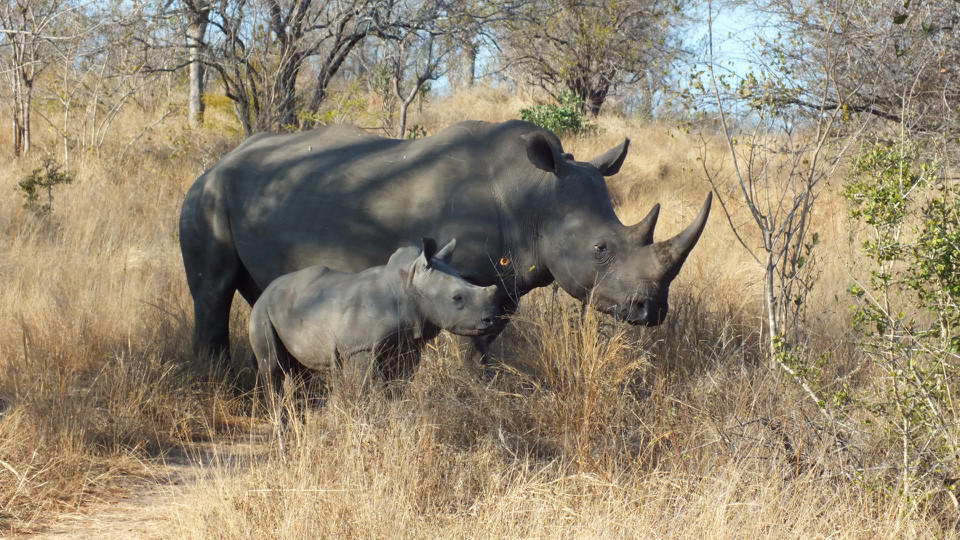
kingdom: Animalia
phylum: Chordata
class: Mammalia
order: Perissodactyla
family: Rhinocerotidae
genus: Ceratotherium
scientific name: Ceratotherium simum
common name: White rhinoceros
